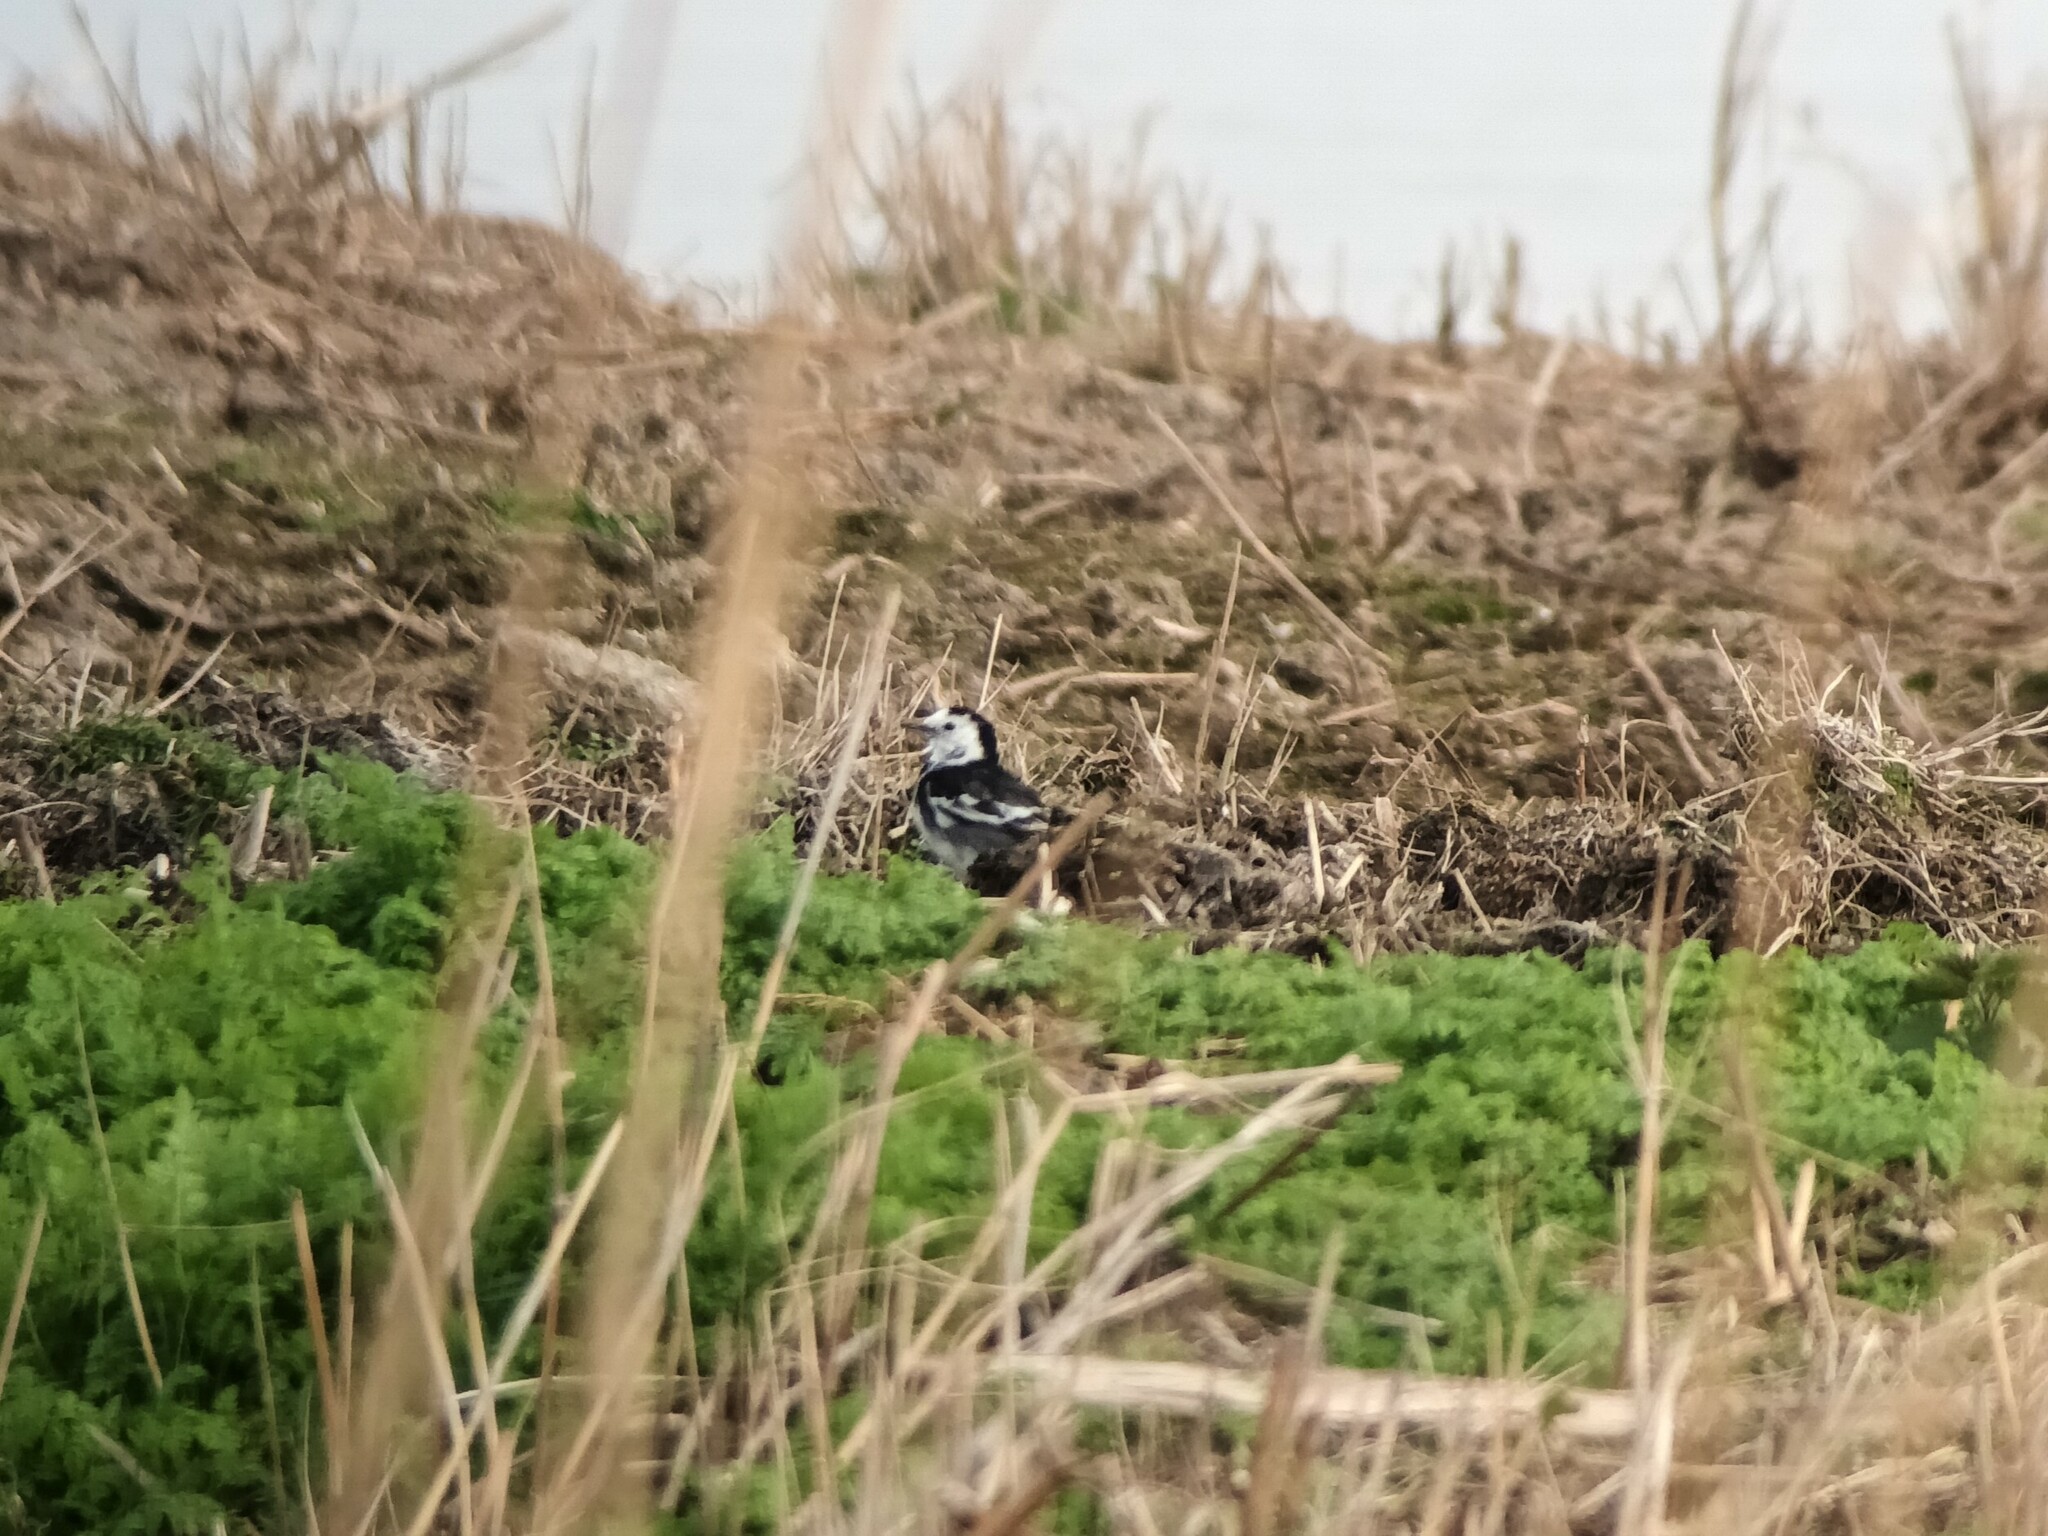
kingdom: Animalia
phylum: Chordata
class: Aves
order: Passeriformes
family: Motacillidae
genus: Motacilla
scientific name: Motacilla alba
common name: White wagtail
